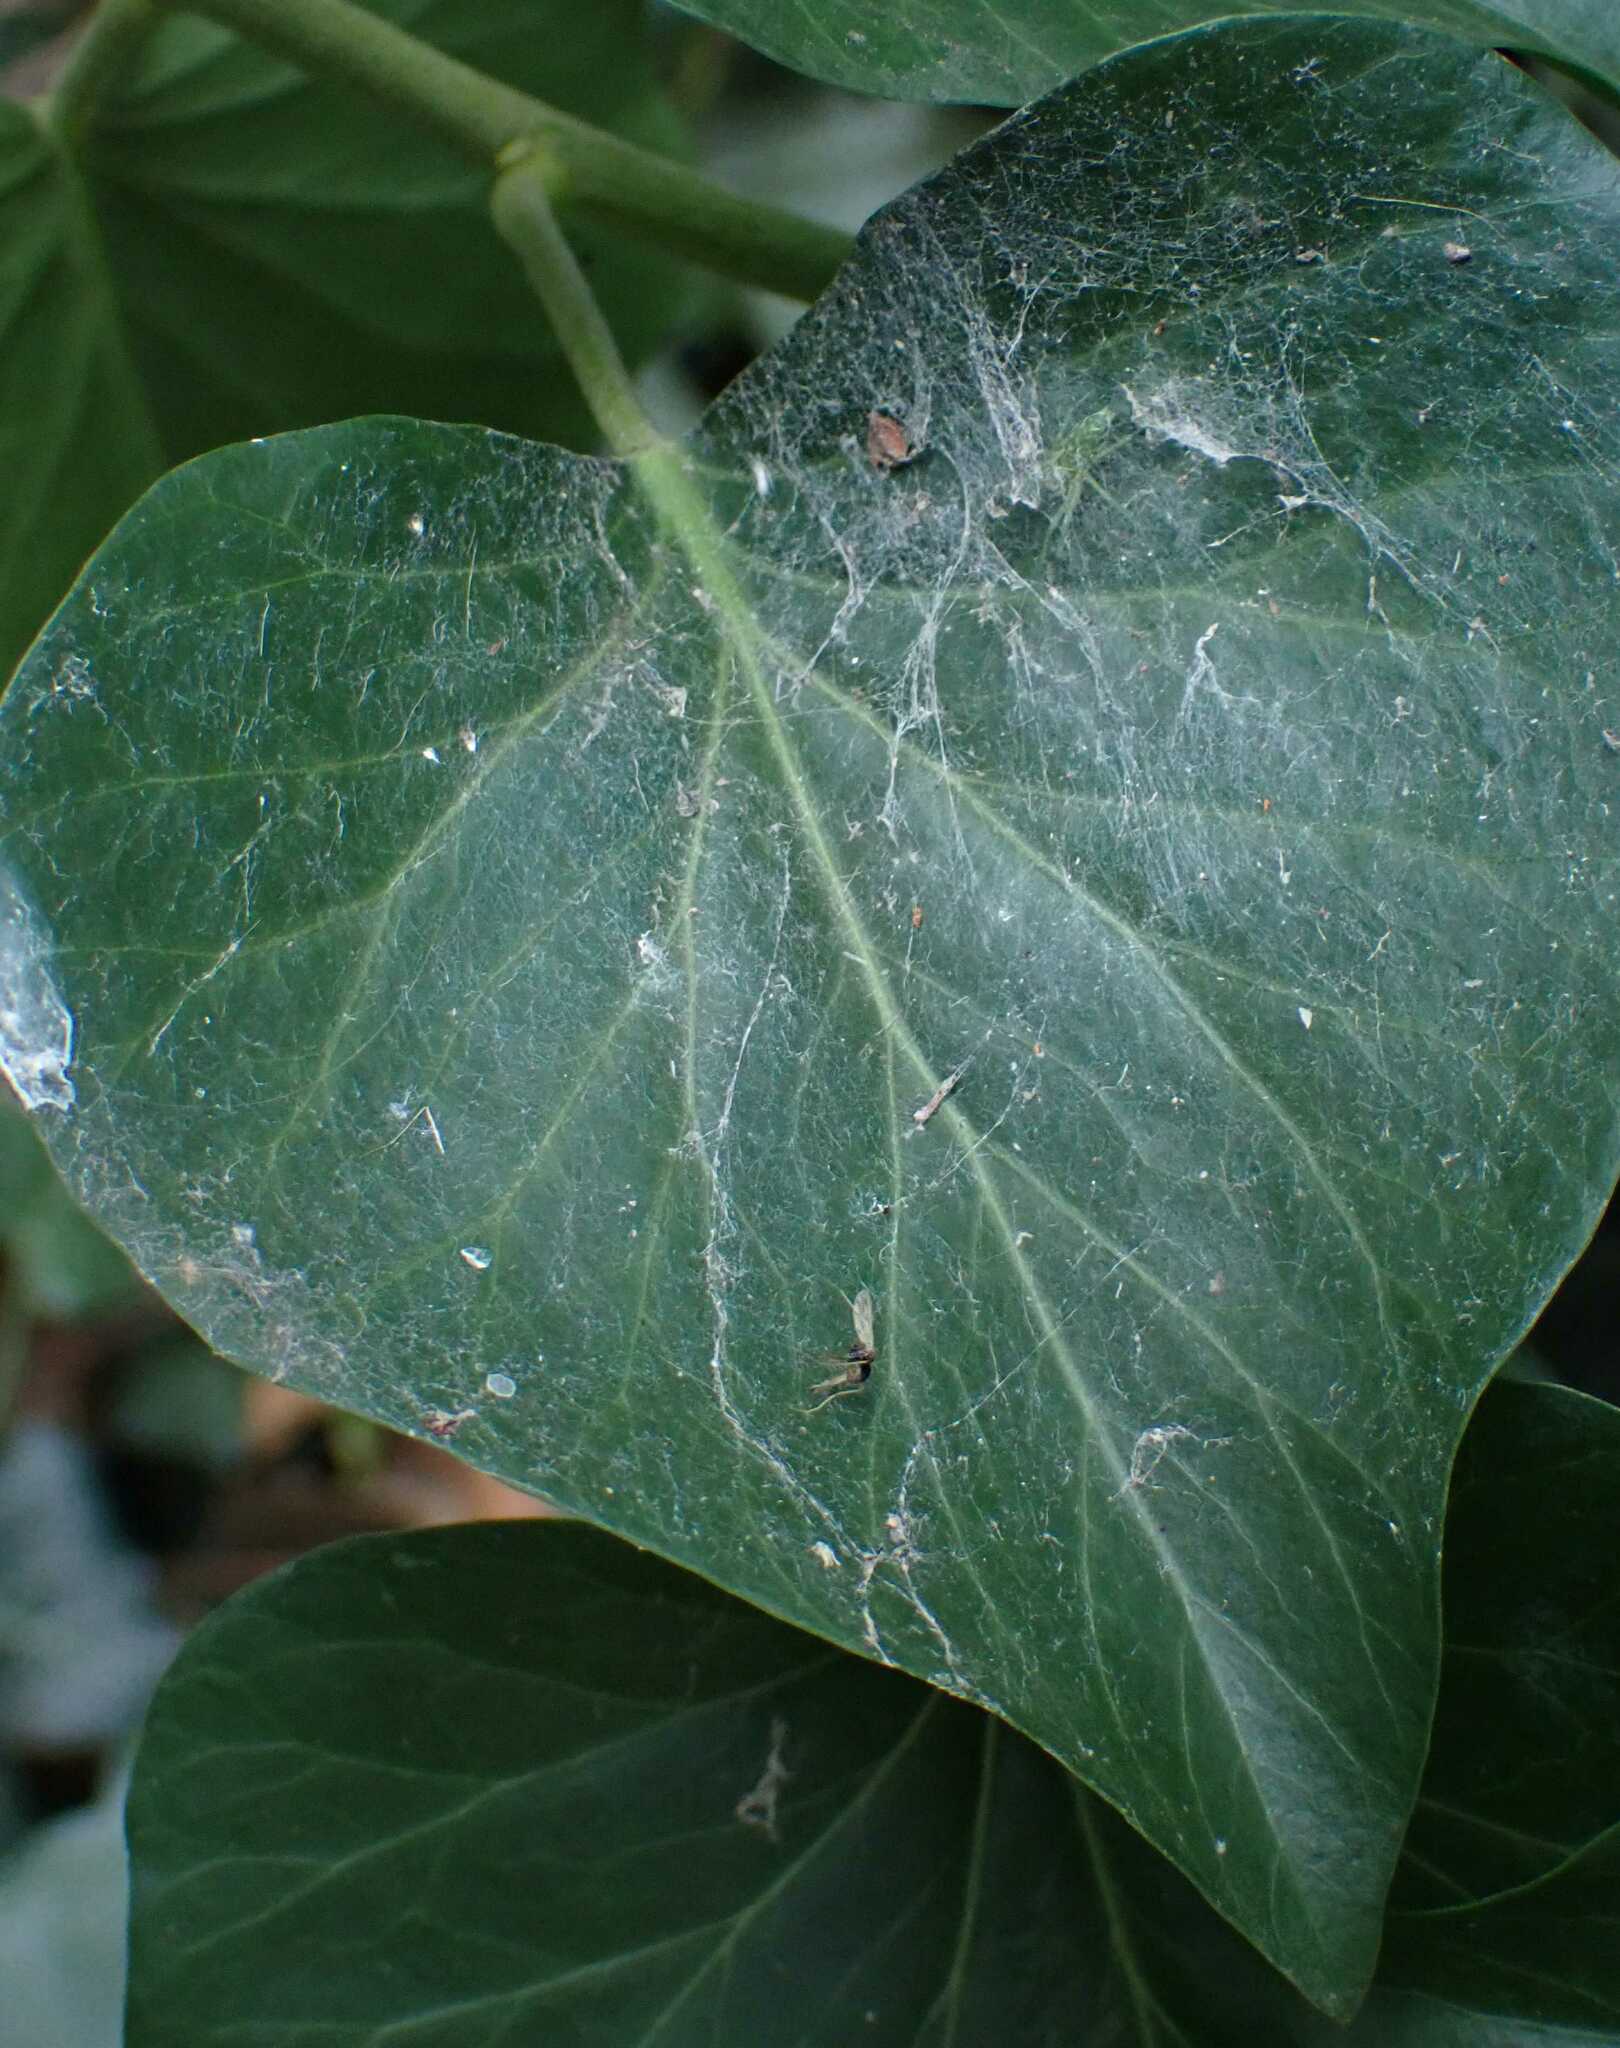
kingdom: Animalia
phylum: Arthropoda
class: Arachnida
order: Araneae
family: Dictynidae
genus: Nigma
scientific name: Nigma walckenaeri
